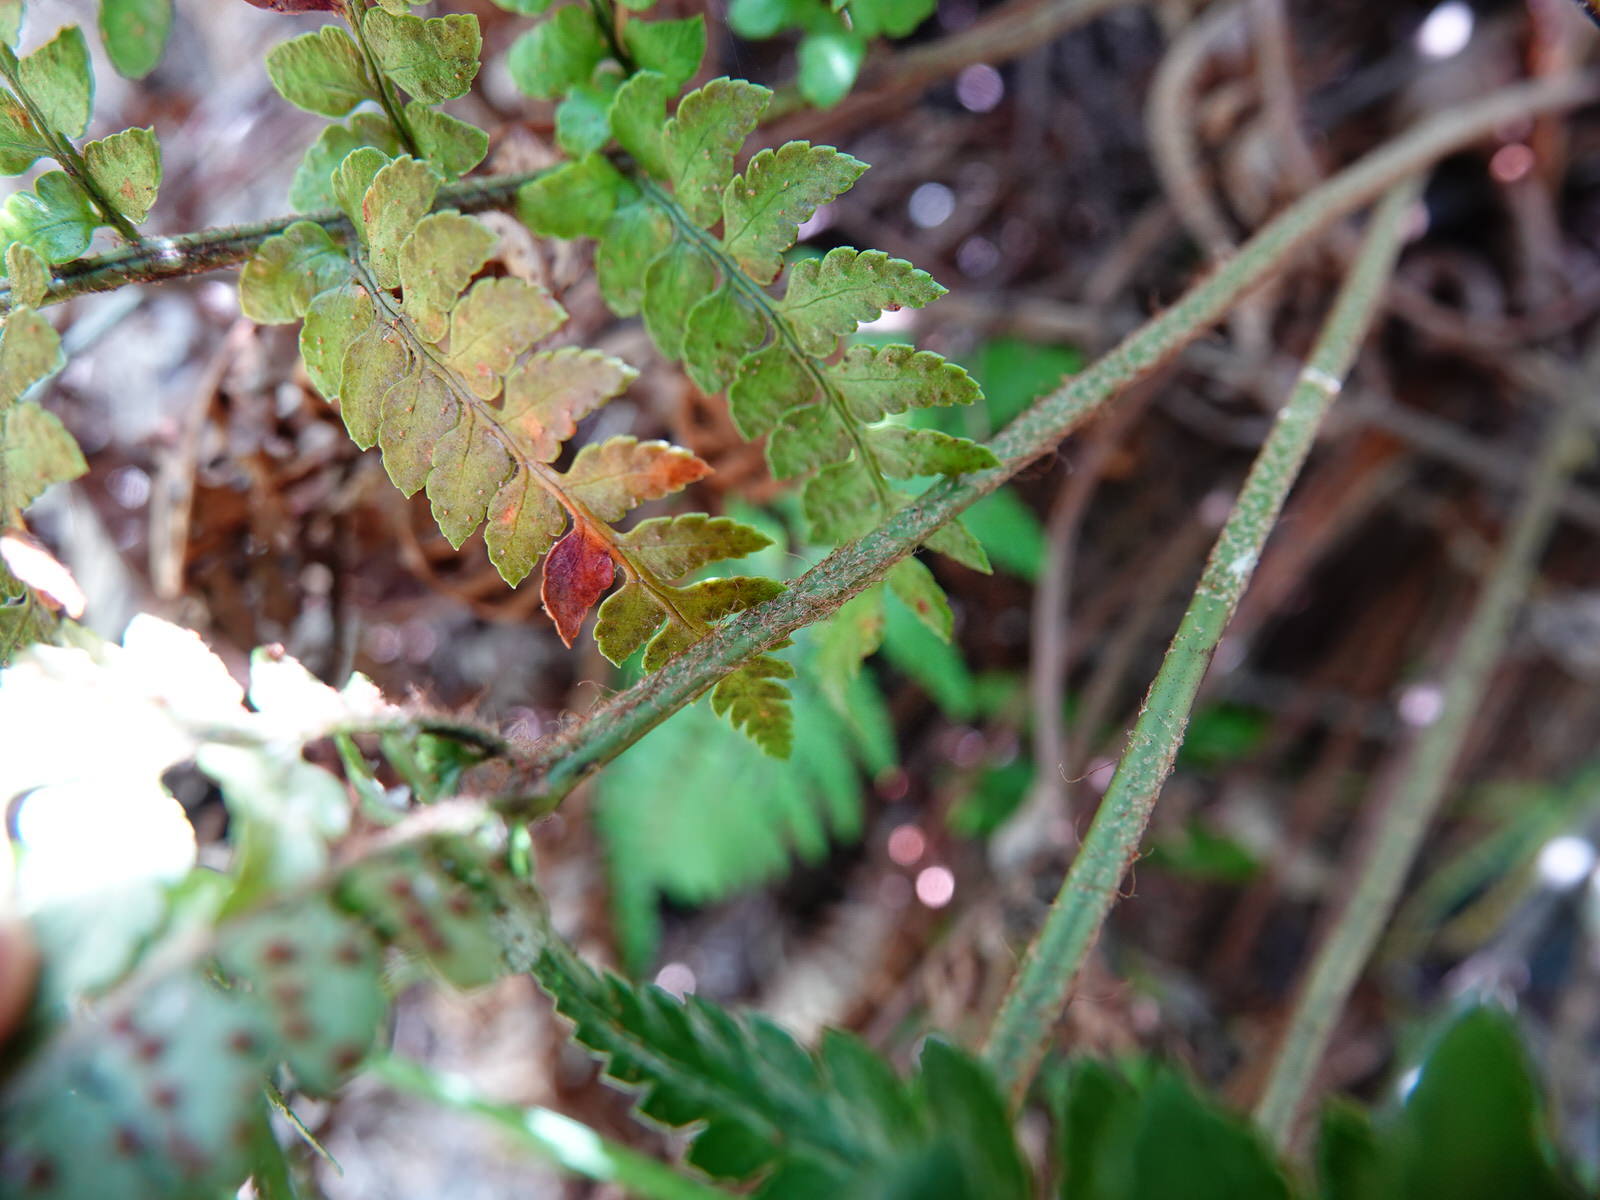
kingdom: Plantae
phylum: Tracheophyta
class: Polypodiopsida
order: Polypodiales
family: Dryopteridaceae
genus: Polystichum
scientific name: Polystichum wawranum
